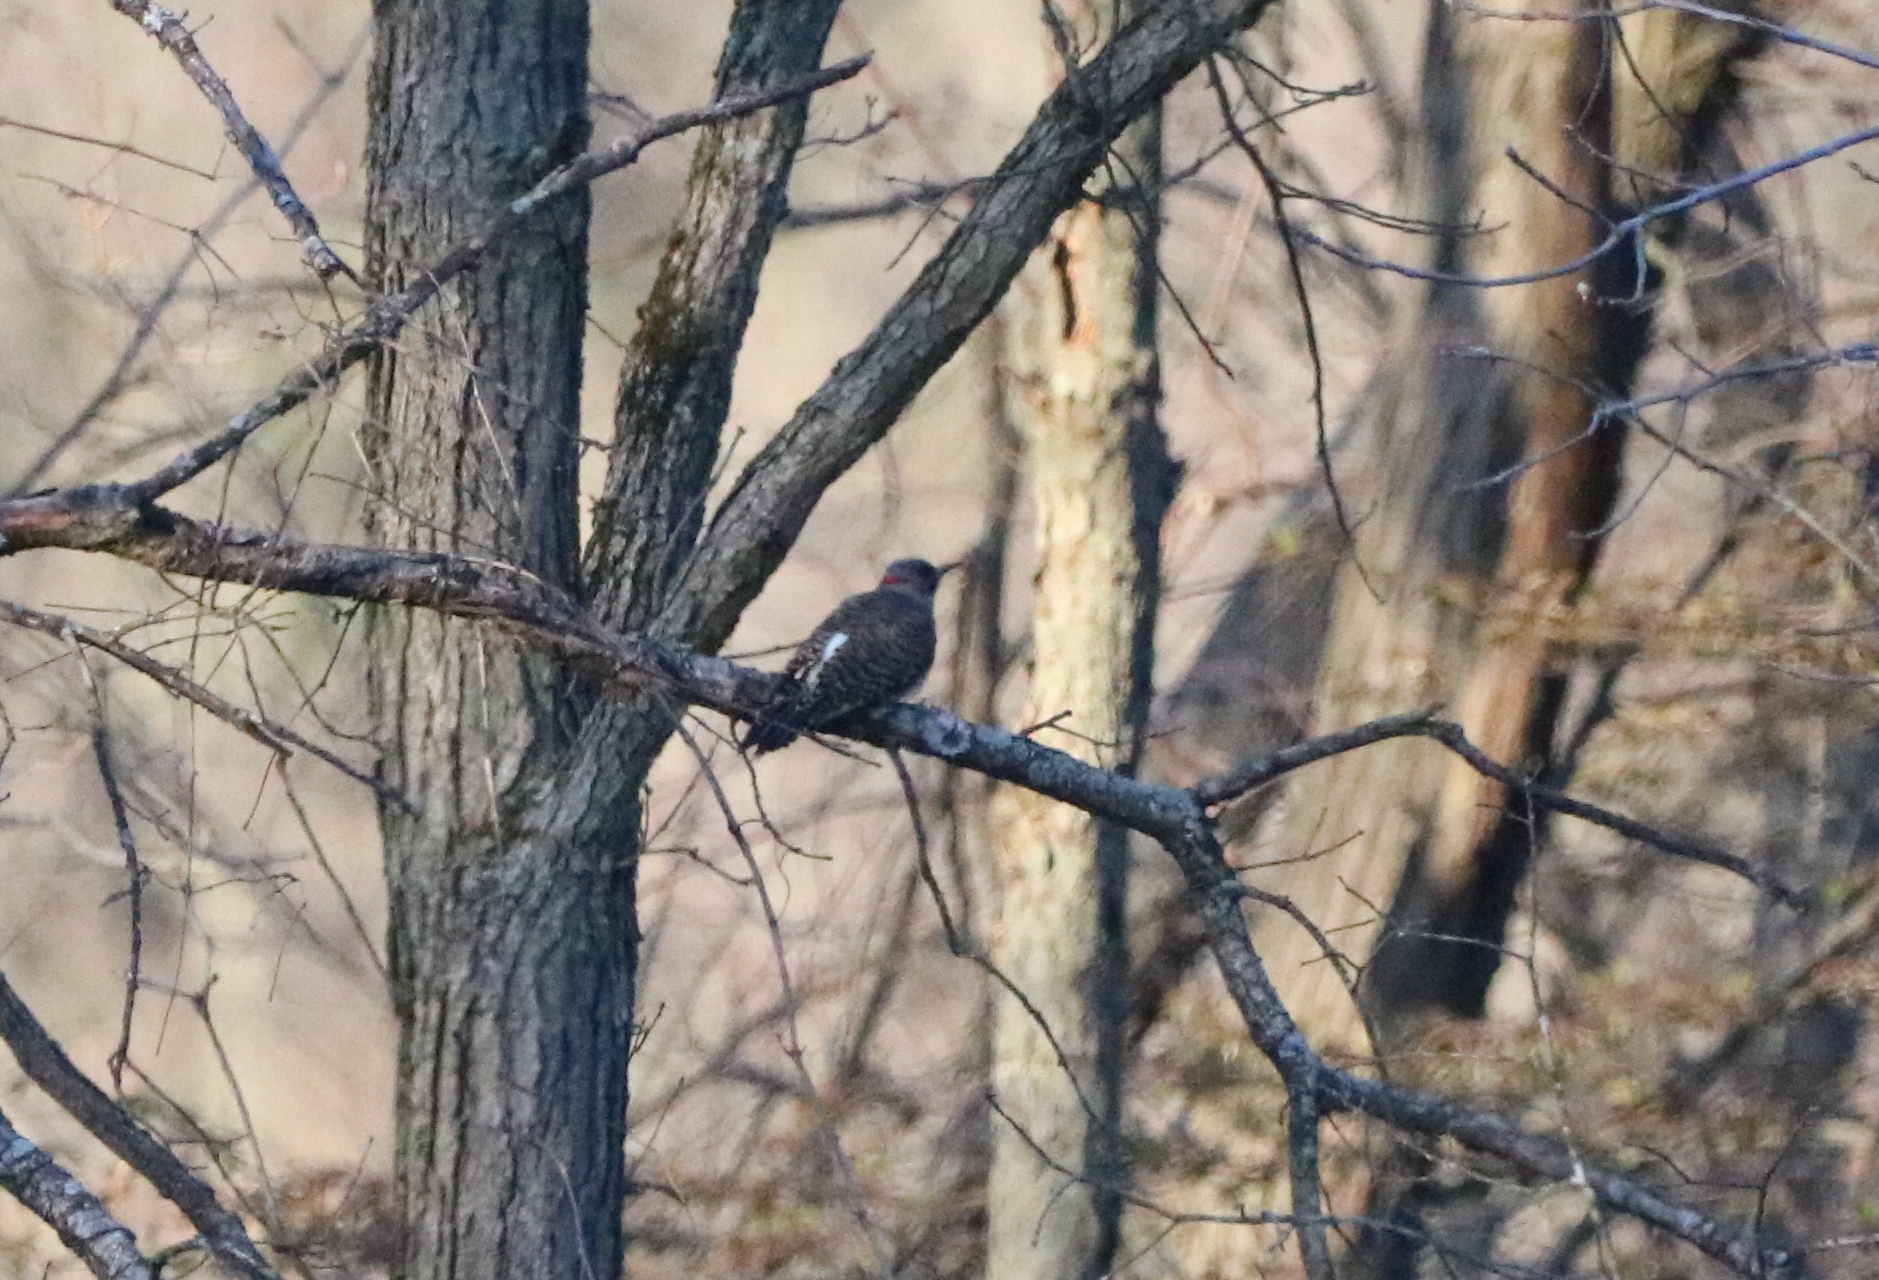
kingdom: Animalia
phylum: Chordata
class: Aves
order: Piciformes
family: Picidae
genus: Colaptes
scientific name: Colaptes auratus
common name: Northern flicker
